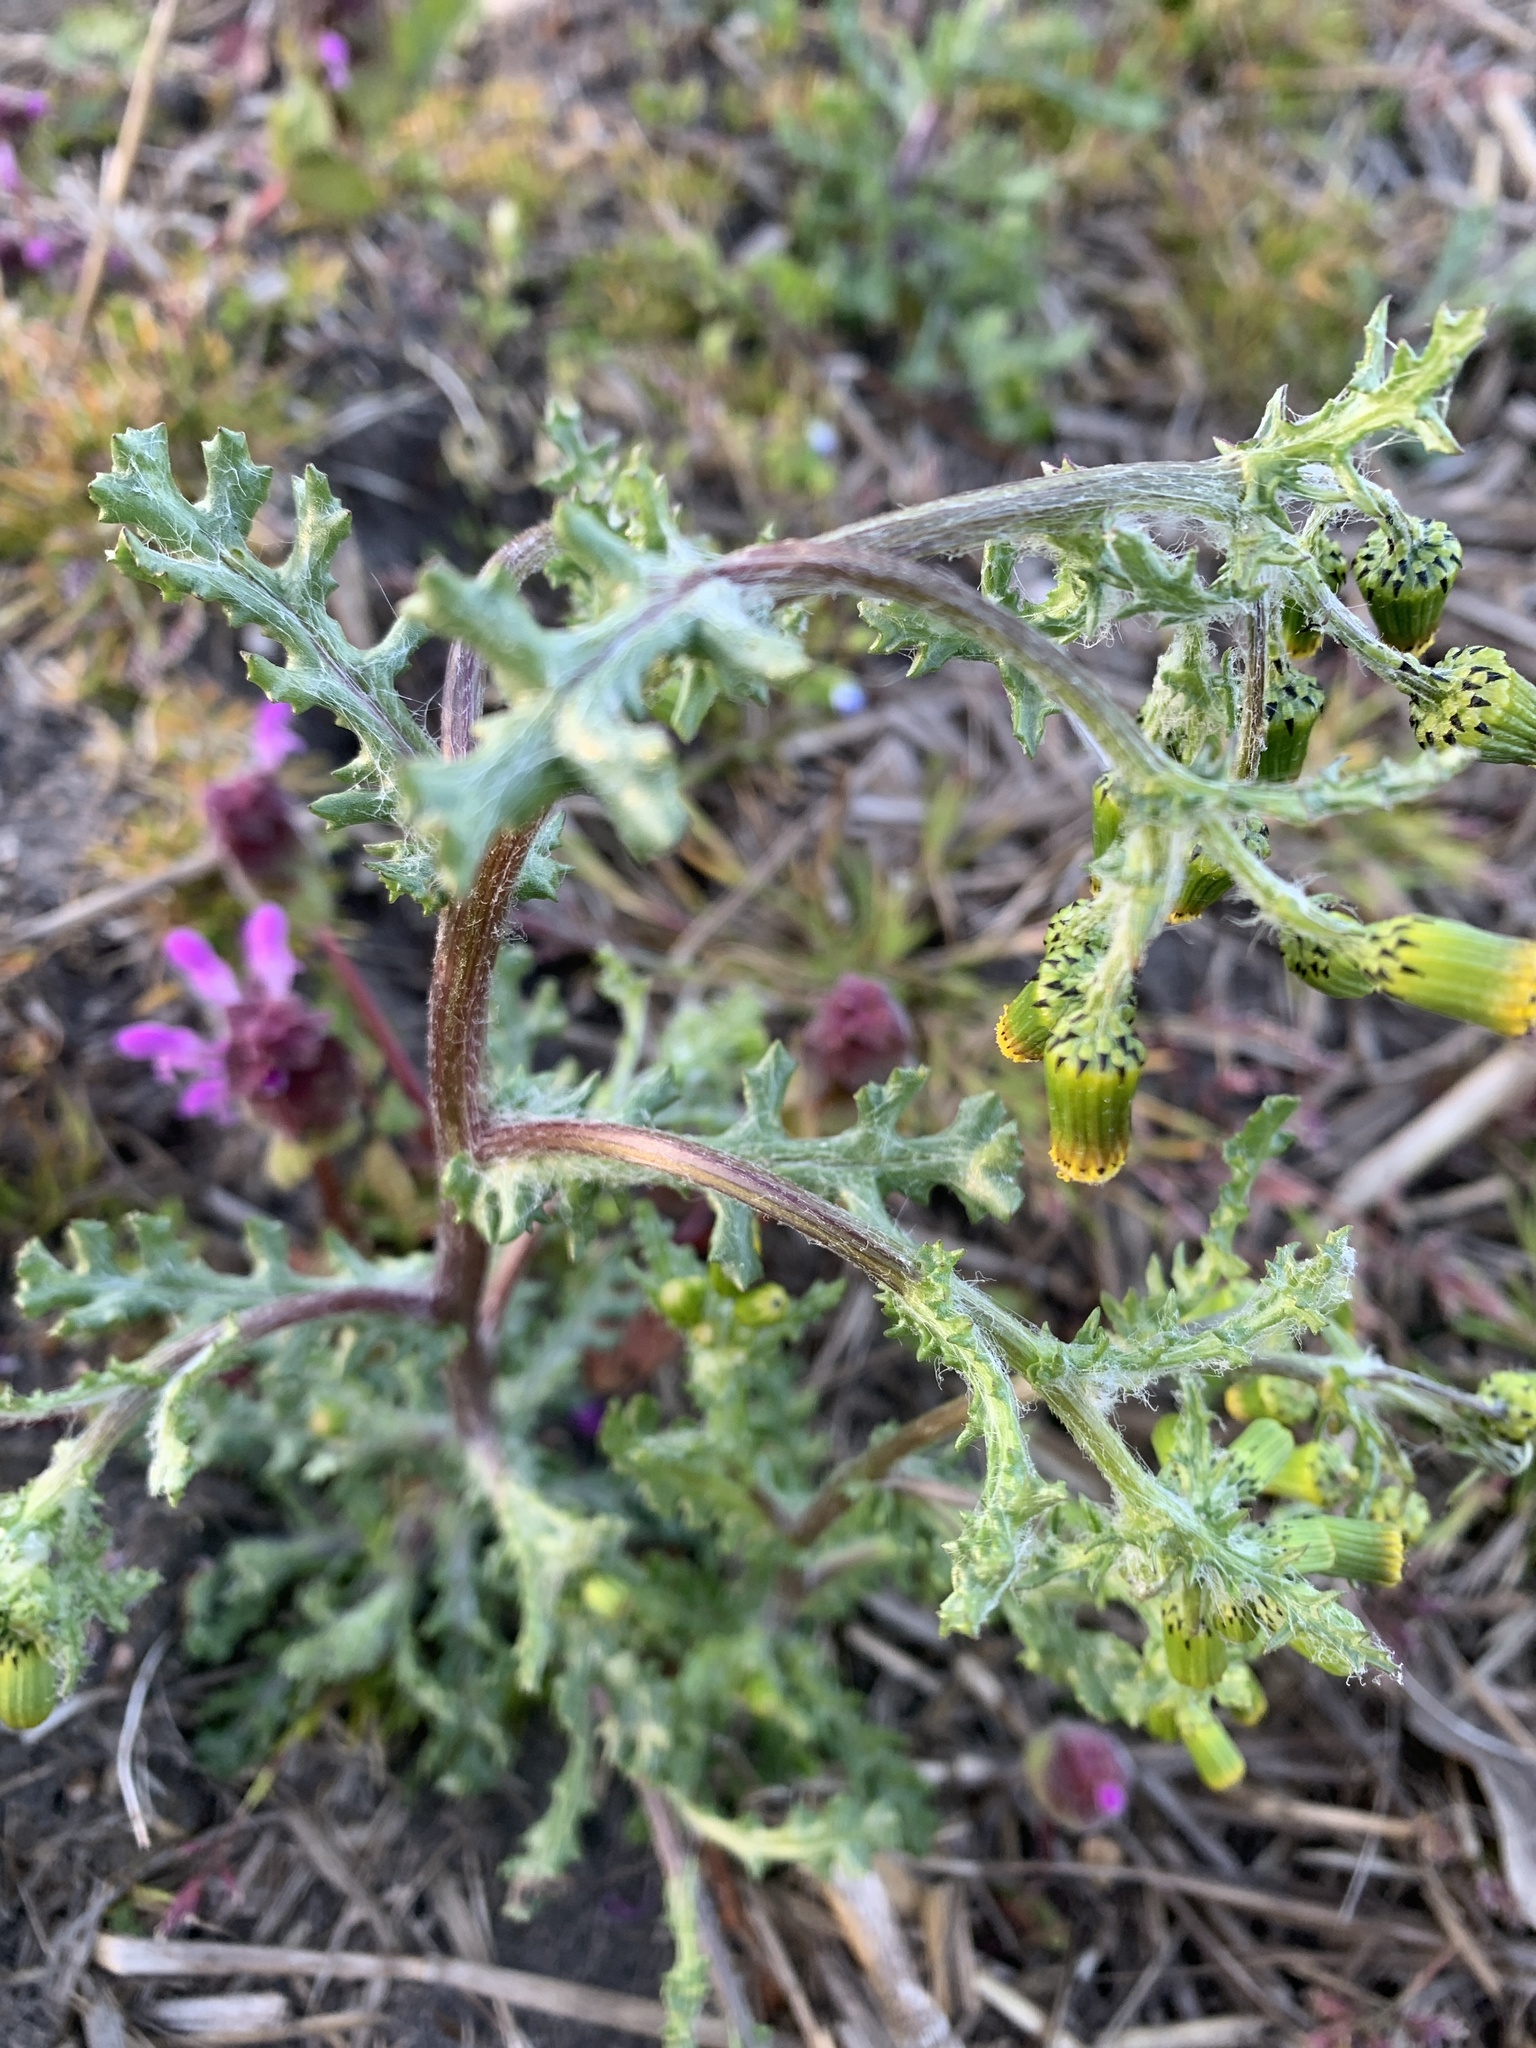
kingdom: Plantae
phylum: Tracheophyta
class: Magnoliopsida
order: Asterales
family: Asteraceae
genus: Senecio
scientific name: Senecio vulgaris
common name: Old-man-in-the-spring
